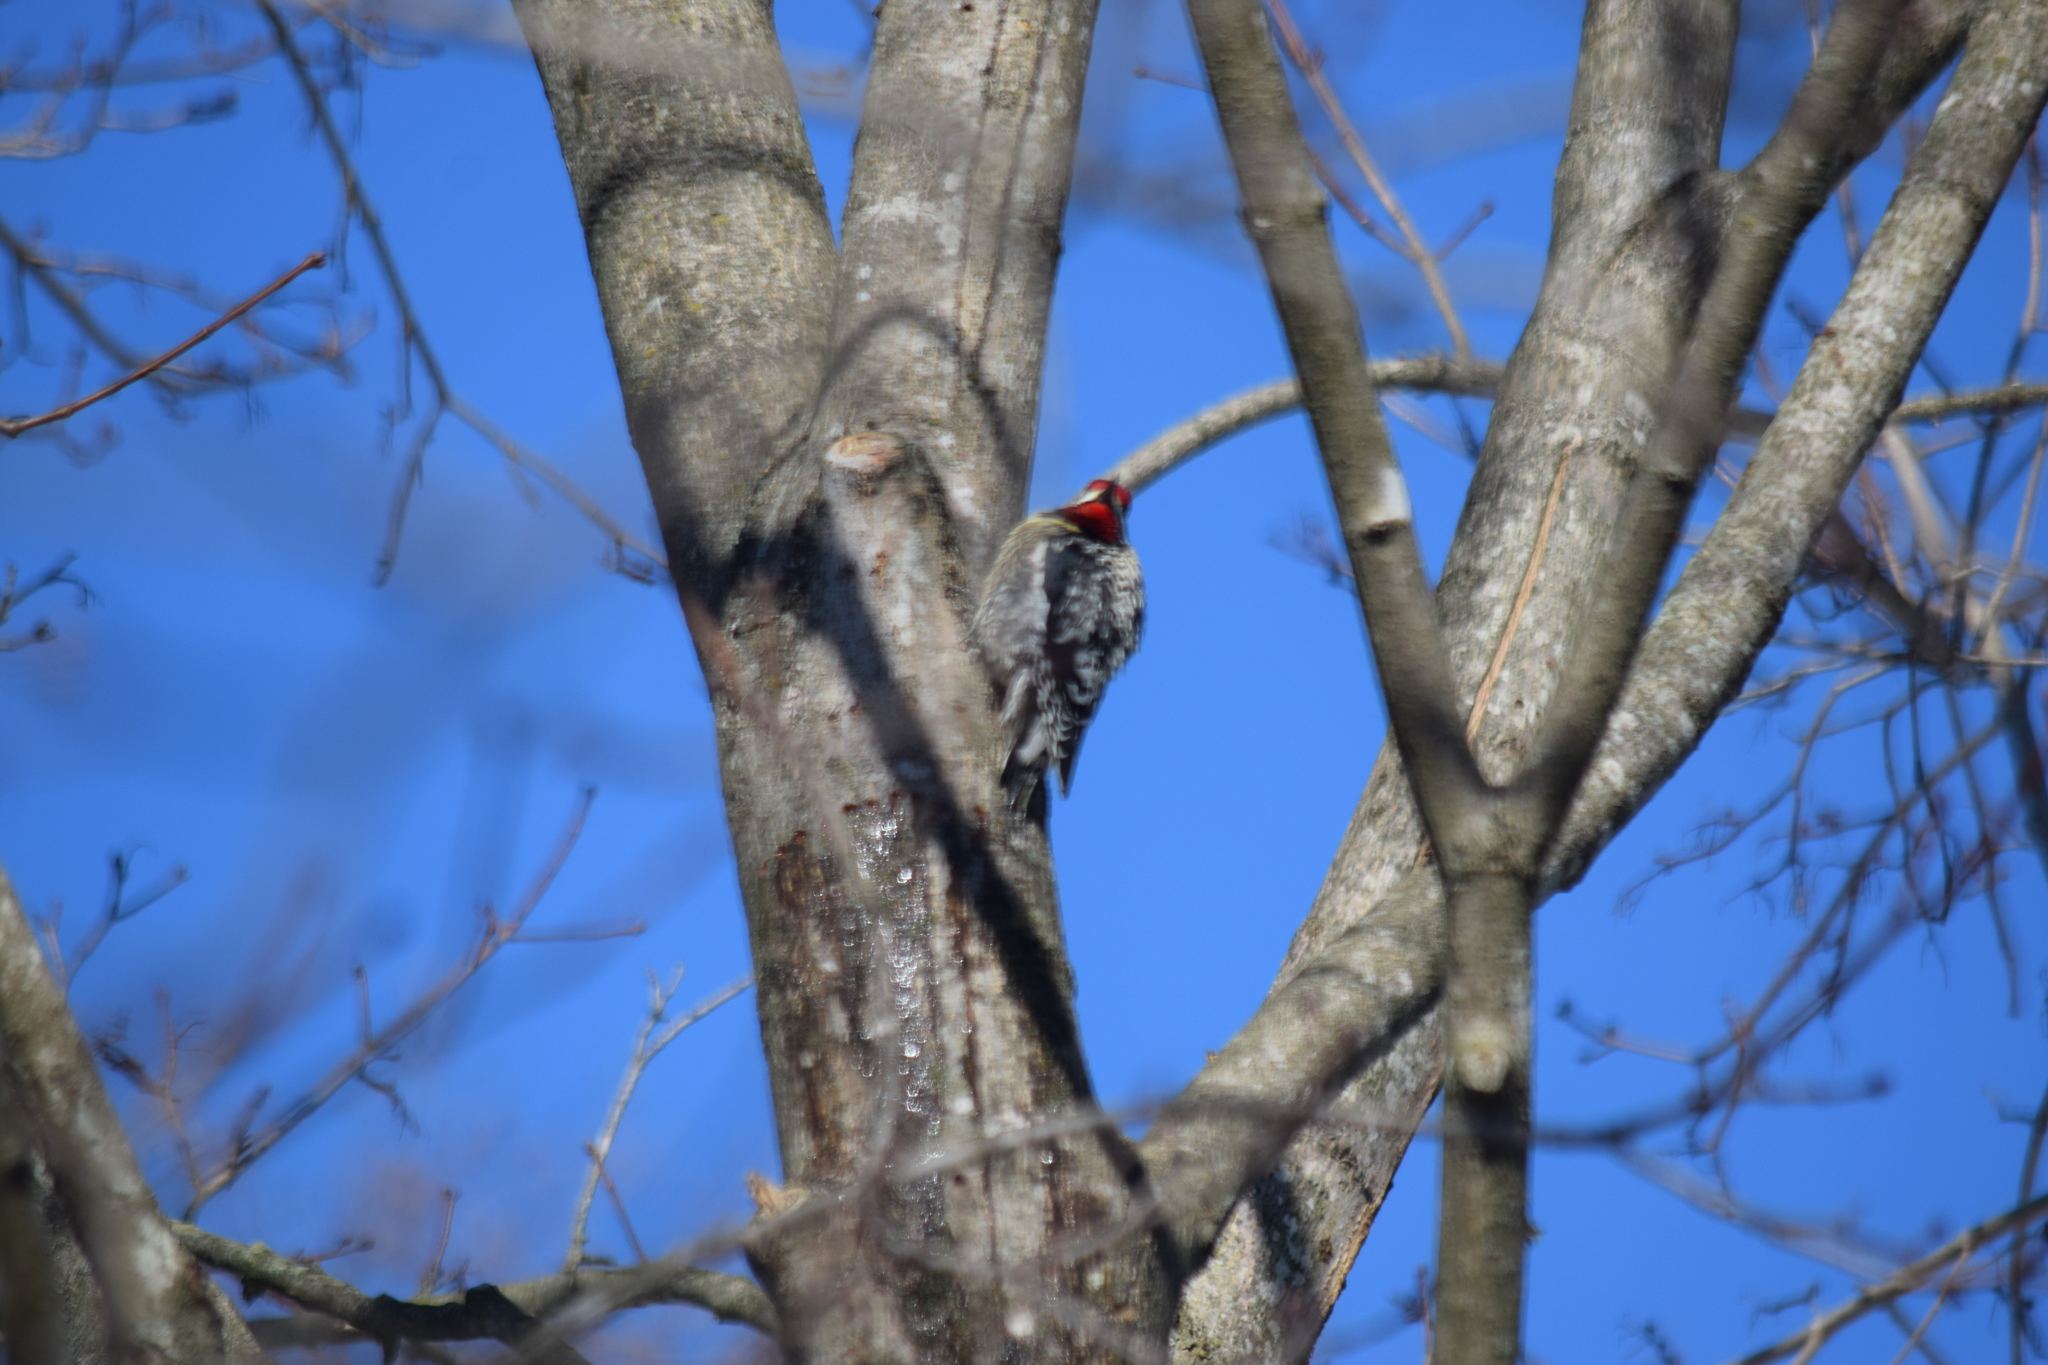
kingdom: Animalia
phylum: Chordata
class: Aves
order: Piciformes
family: Picidae
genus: Sphyrapicus
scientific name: Sphyrapicus varius
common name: Yellow-bellied sapsucker
